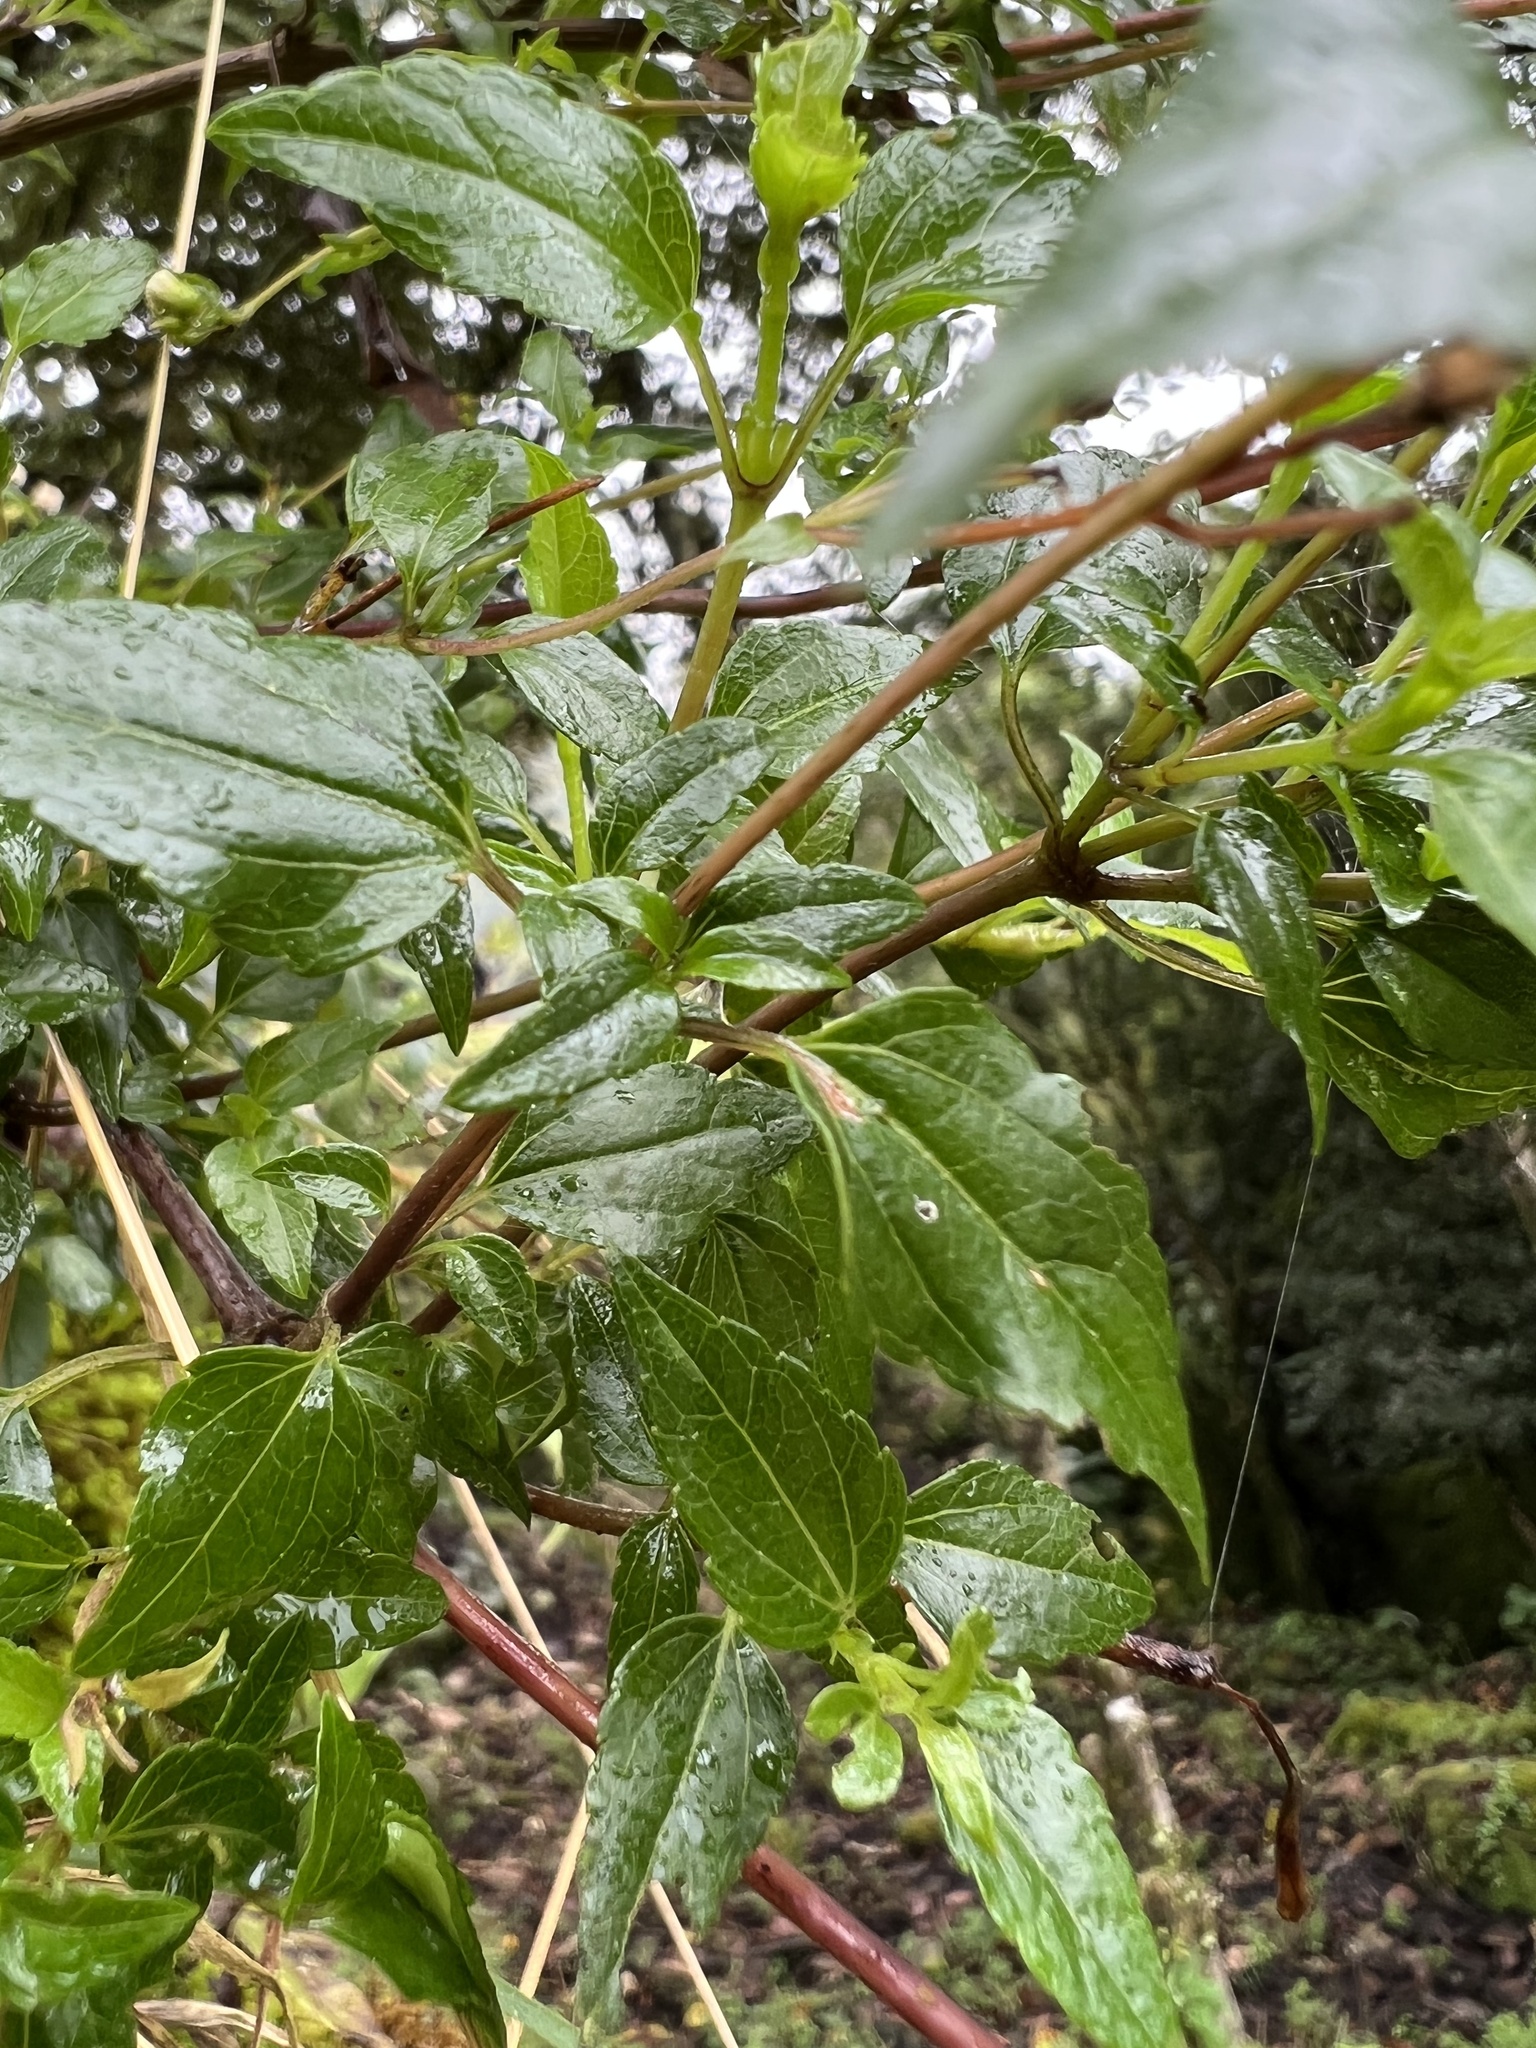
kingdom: Plantae
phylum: Tracheophyta
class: Magnoliopsida
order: Asterales
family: Asteraceae
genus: Ageratina
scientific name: Ageratina gracilis
